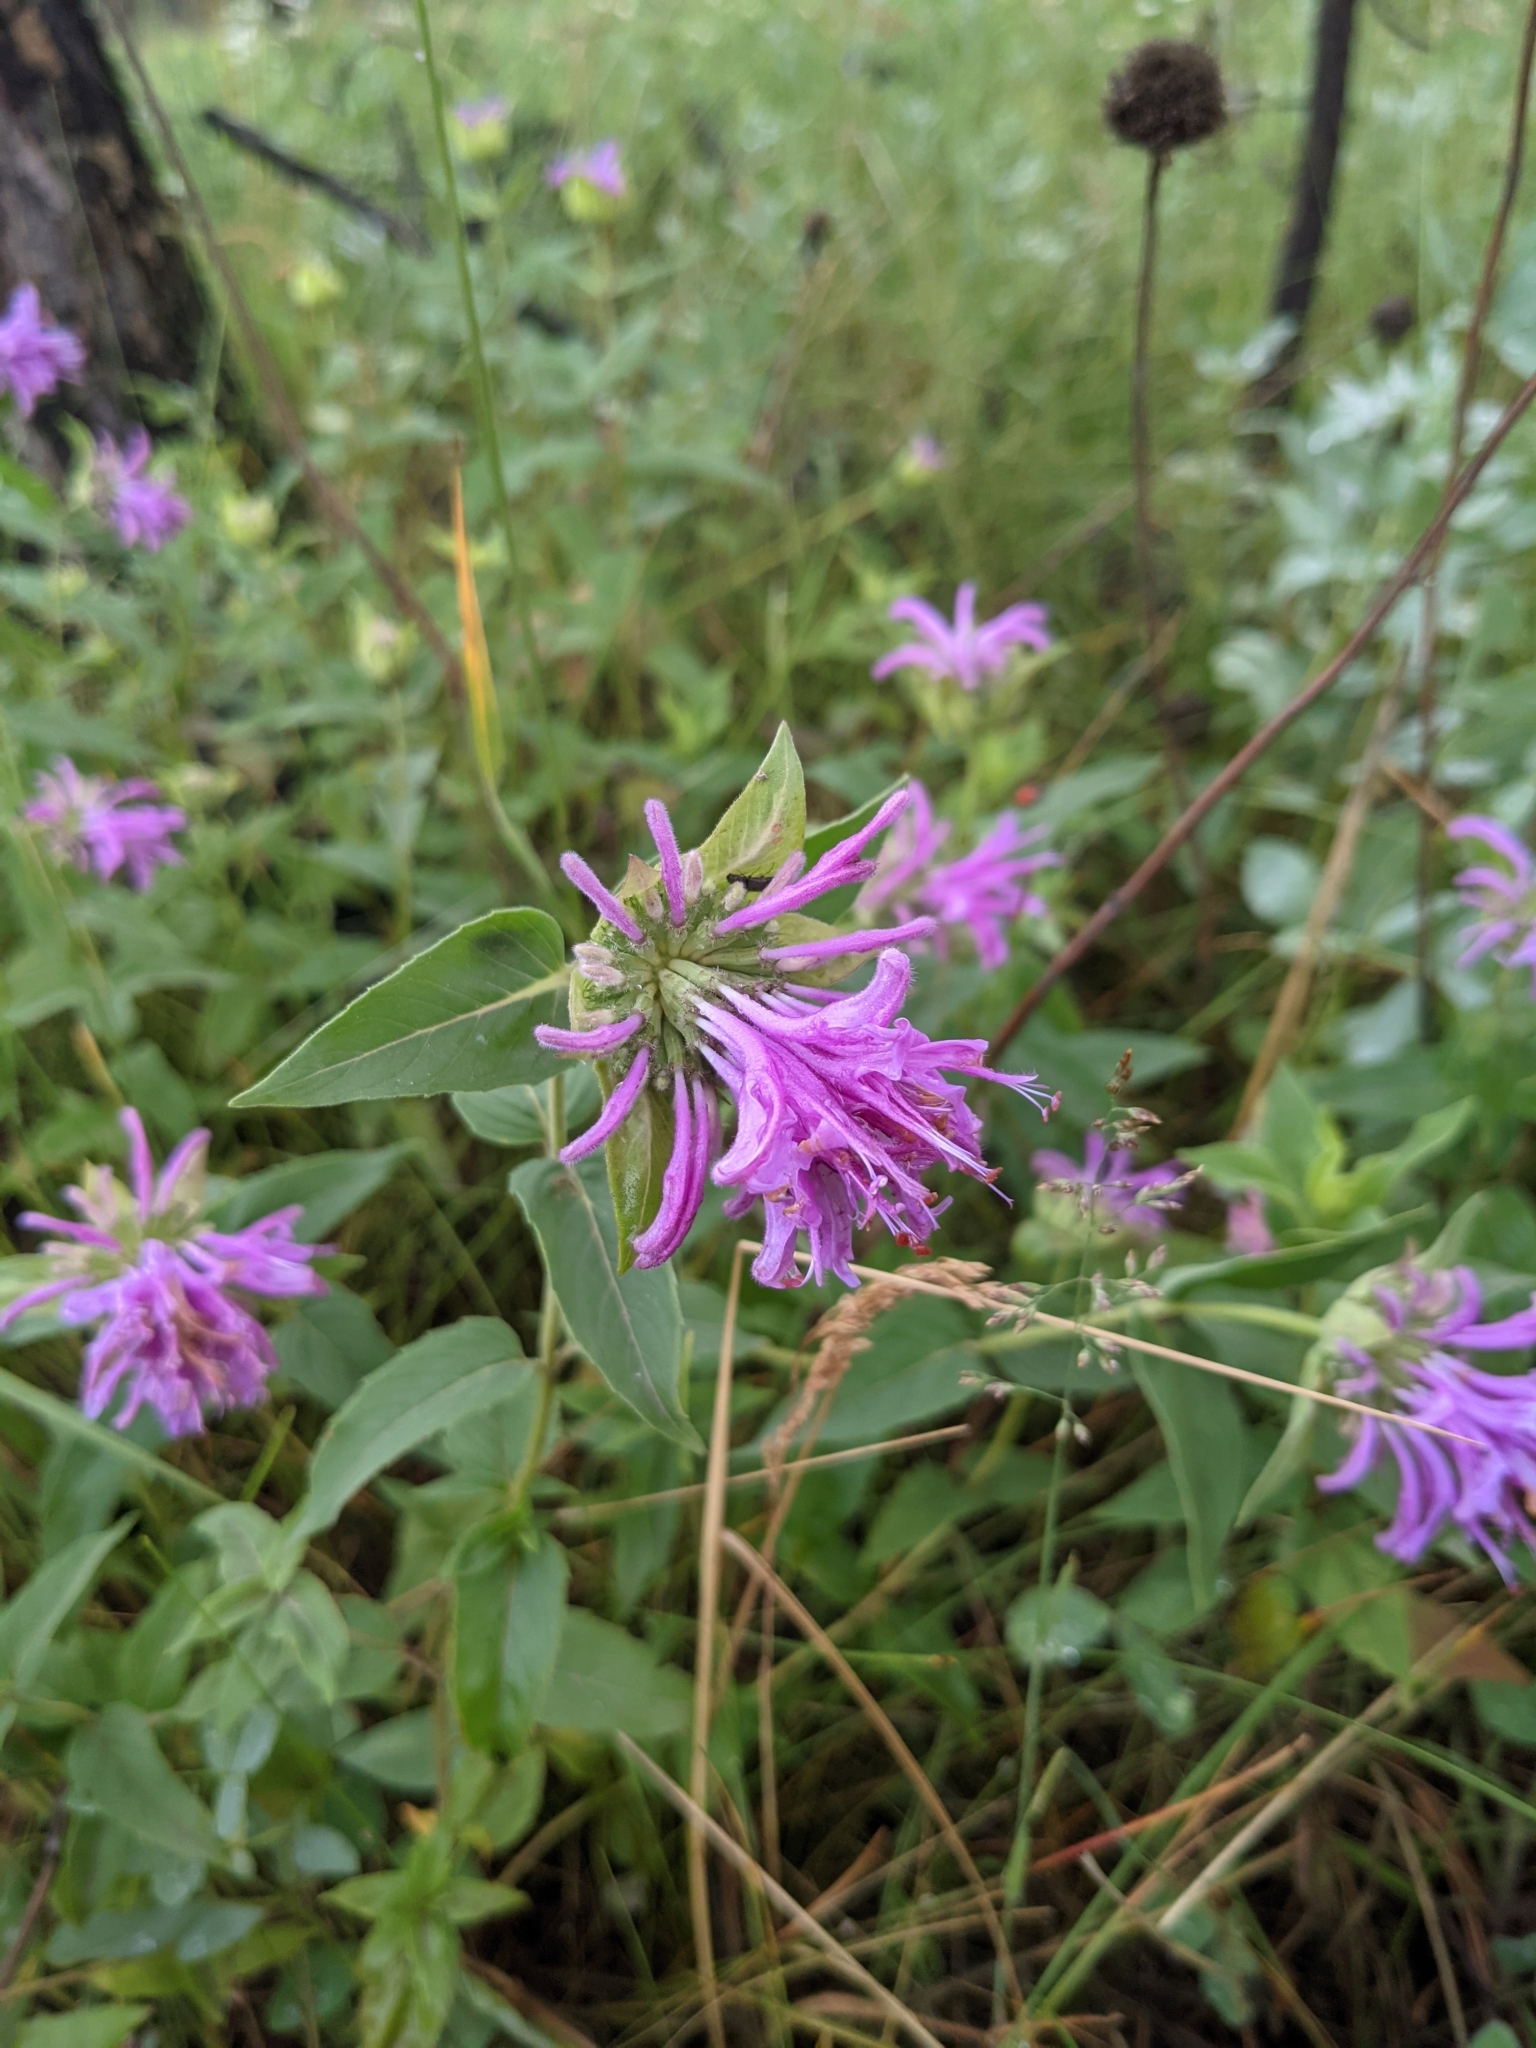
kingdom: Plantae
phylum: Tracheophyta
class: Magnoliopsida
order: Lamiales
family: Lamiaceae
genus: Monarda
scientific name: Monarda fistulosa
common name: Purple beebalm
